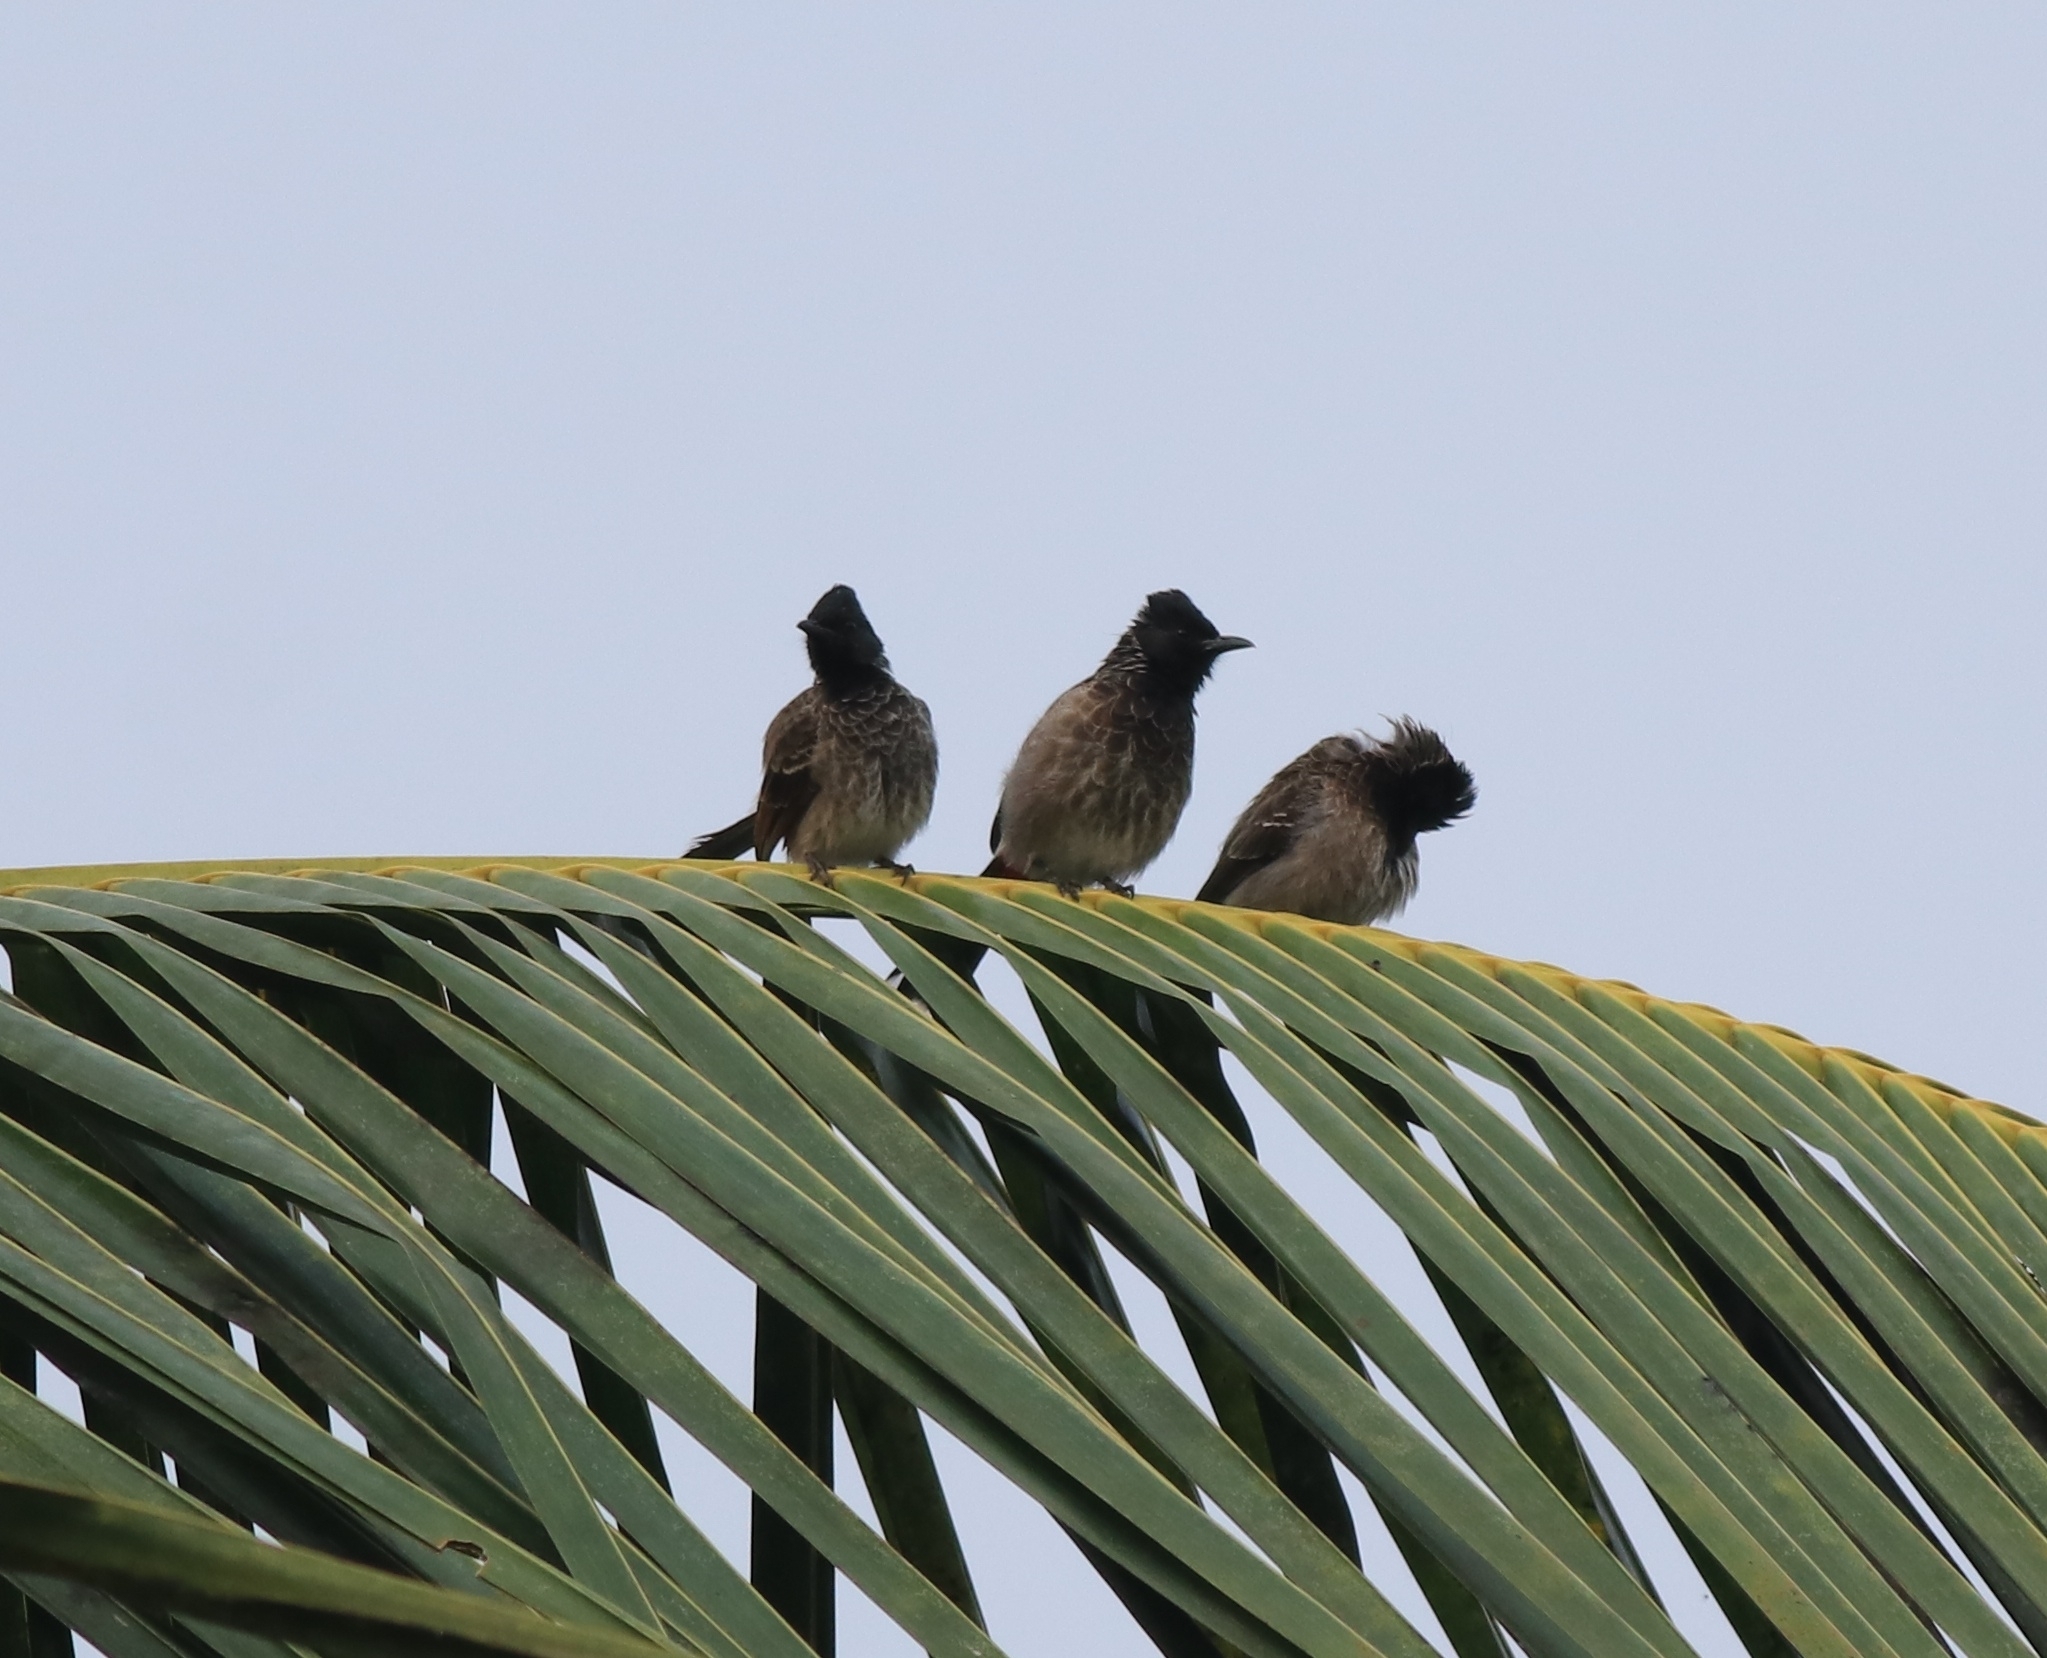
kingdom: Animalia
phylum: Chordata
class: Aves
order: Passeriformes
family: Pycnonotidae
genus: Pycnonotus
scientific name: Pycnonotus cafer
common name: Red-vented bulbul
